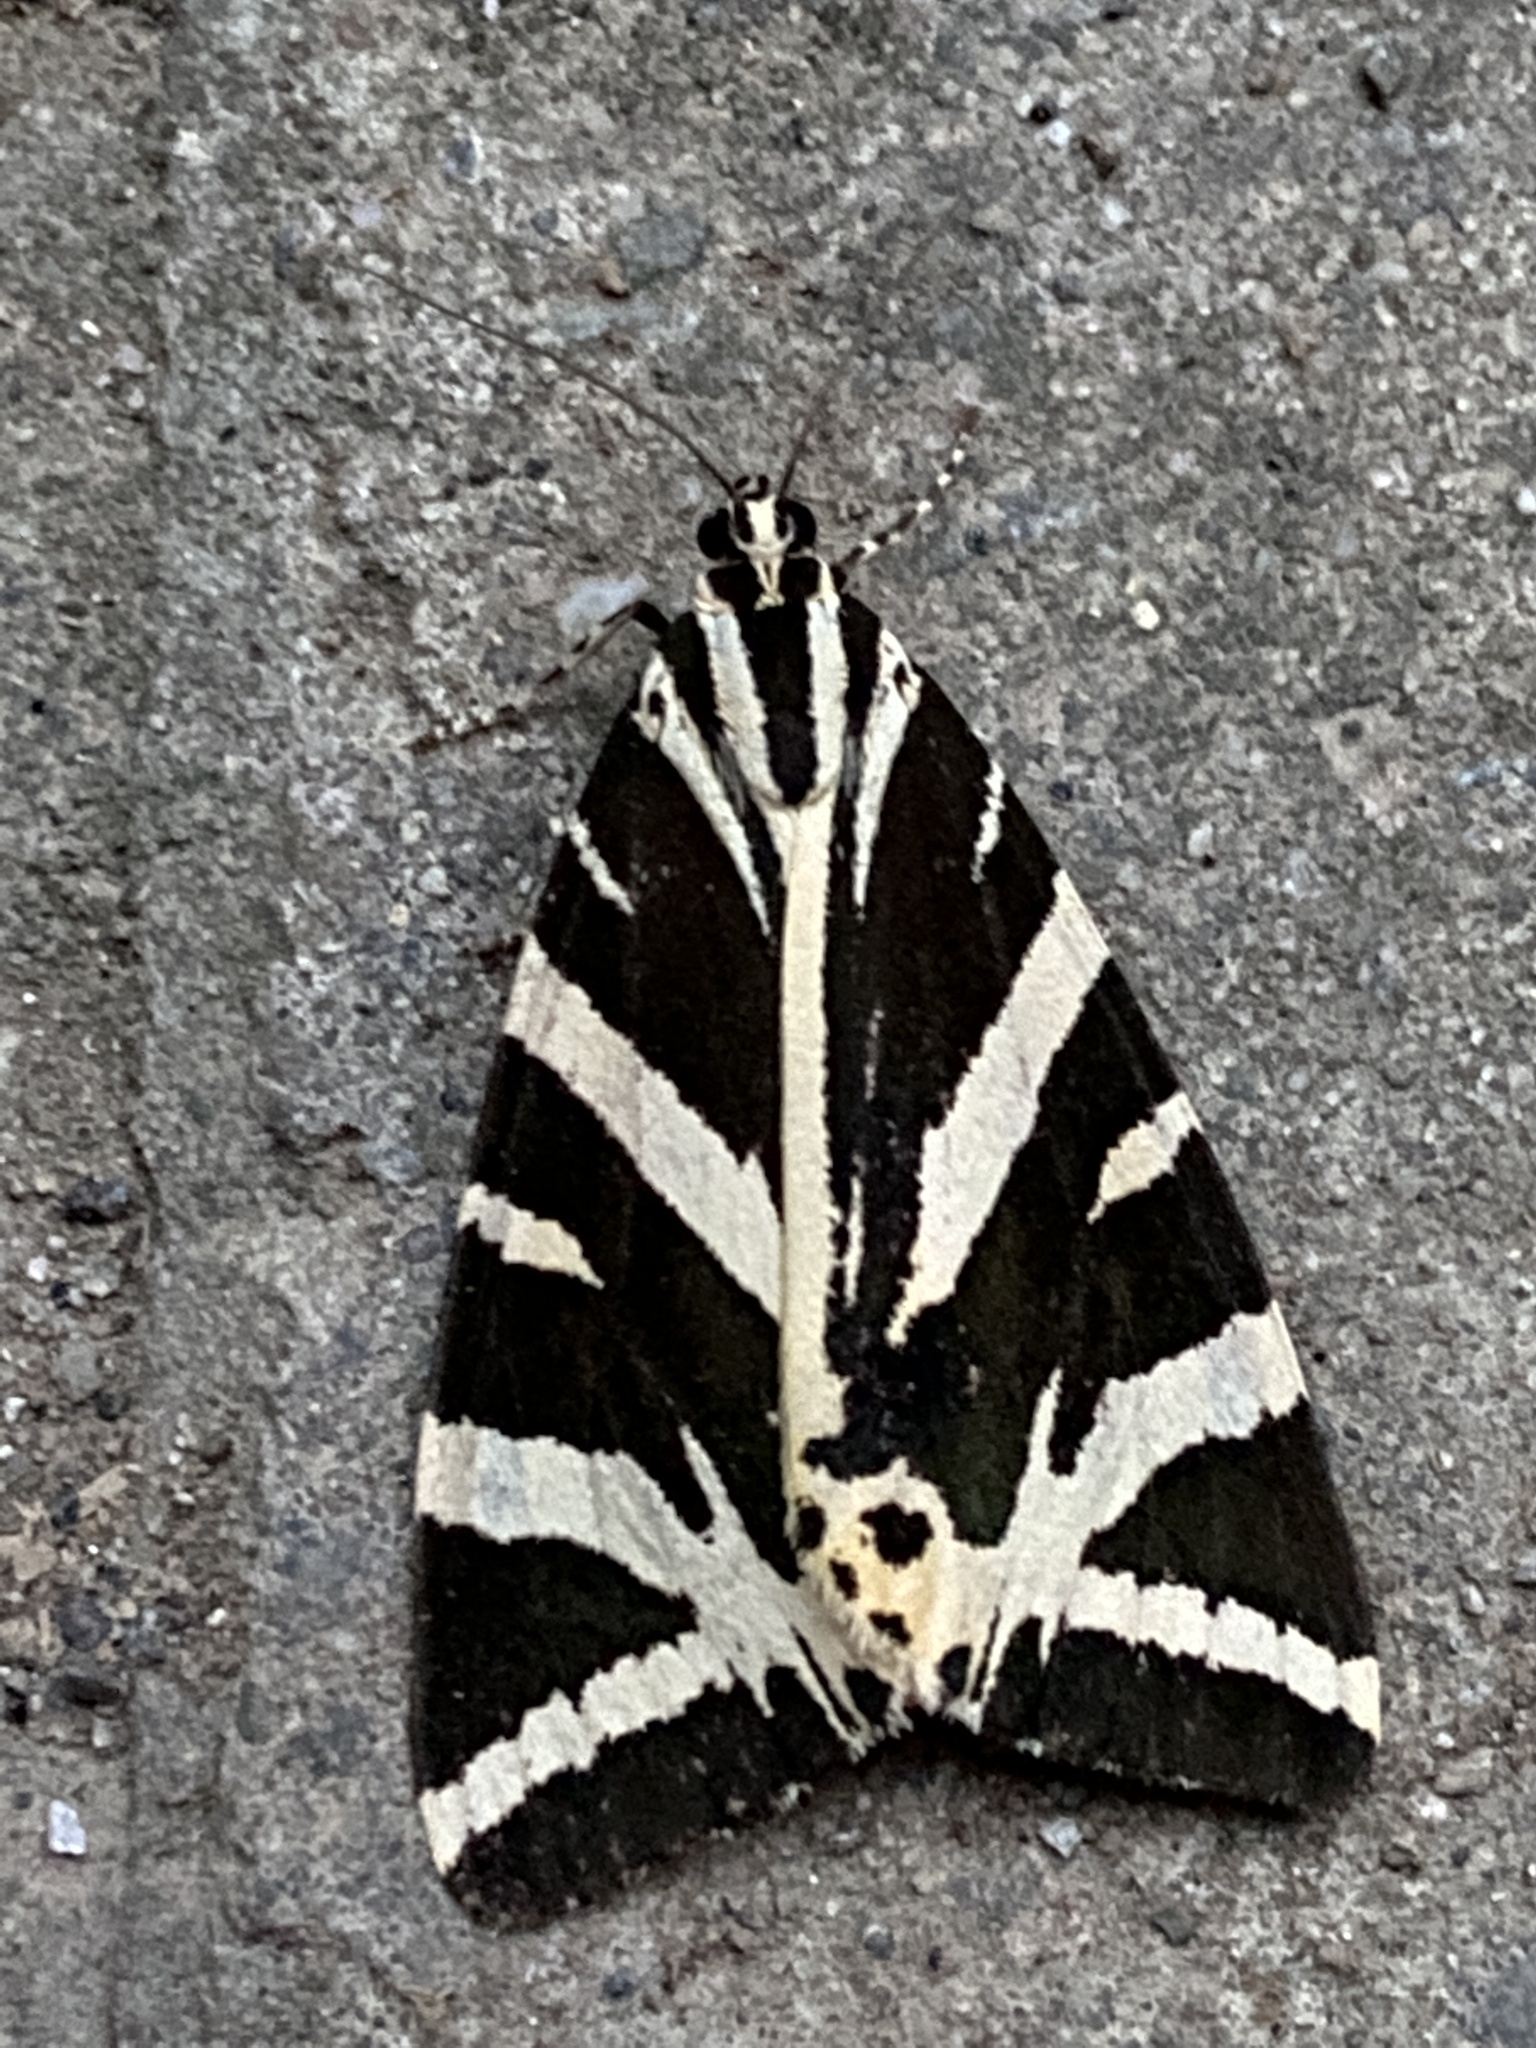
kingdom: Animalia
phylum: Arthropoda
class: Insecta
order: Lepidoptera
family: Erebidae
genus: Euplagia
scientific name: Euplagia quadripunctaria
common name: Jersey tiger
